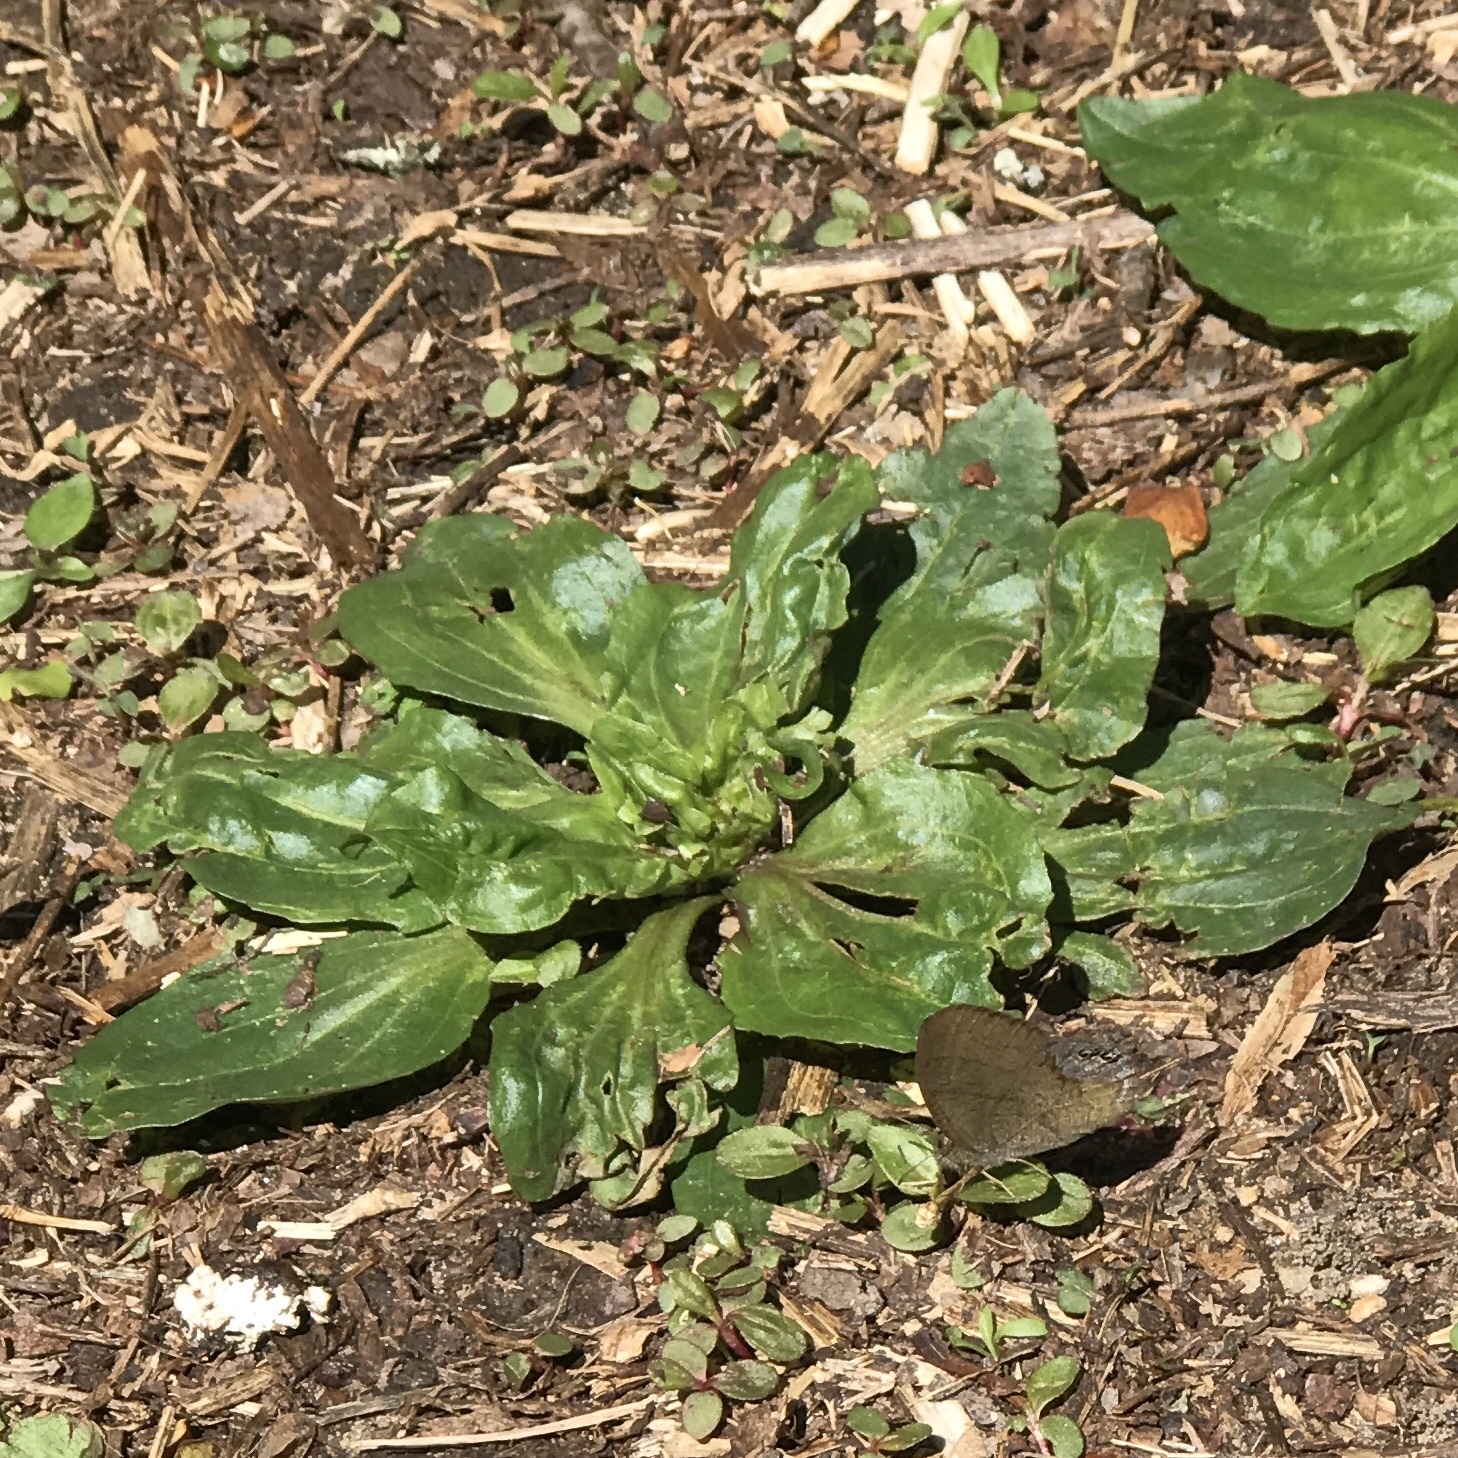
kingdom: Animalia
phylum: Arthropoda
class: Insecta
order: Lepidoptera
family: Nymphalidae
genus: Euptychia
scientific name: Euptychia cornelius
